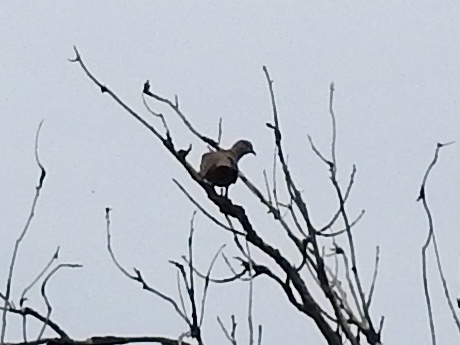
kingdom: Animalia
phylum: Chordata
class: Aves
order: Columbiformes
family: Columbidae
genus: Streptopelia
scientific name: Streptopelia decaocto
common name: Eurasian collared dove
